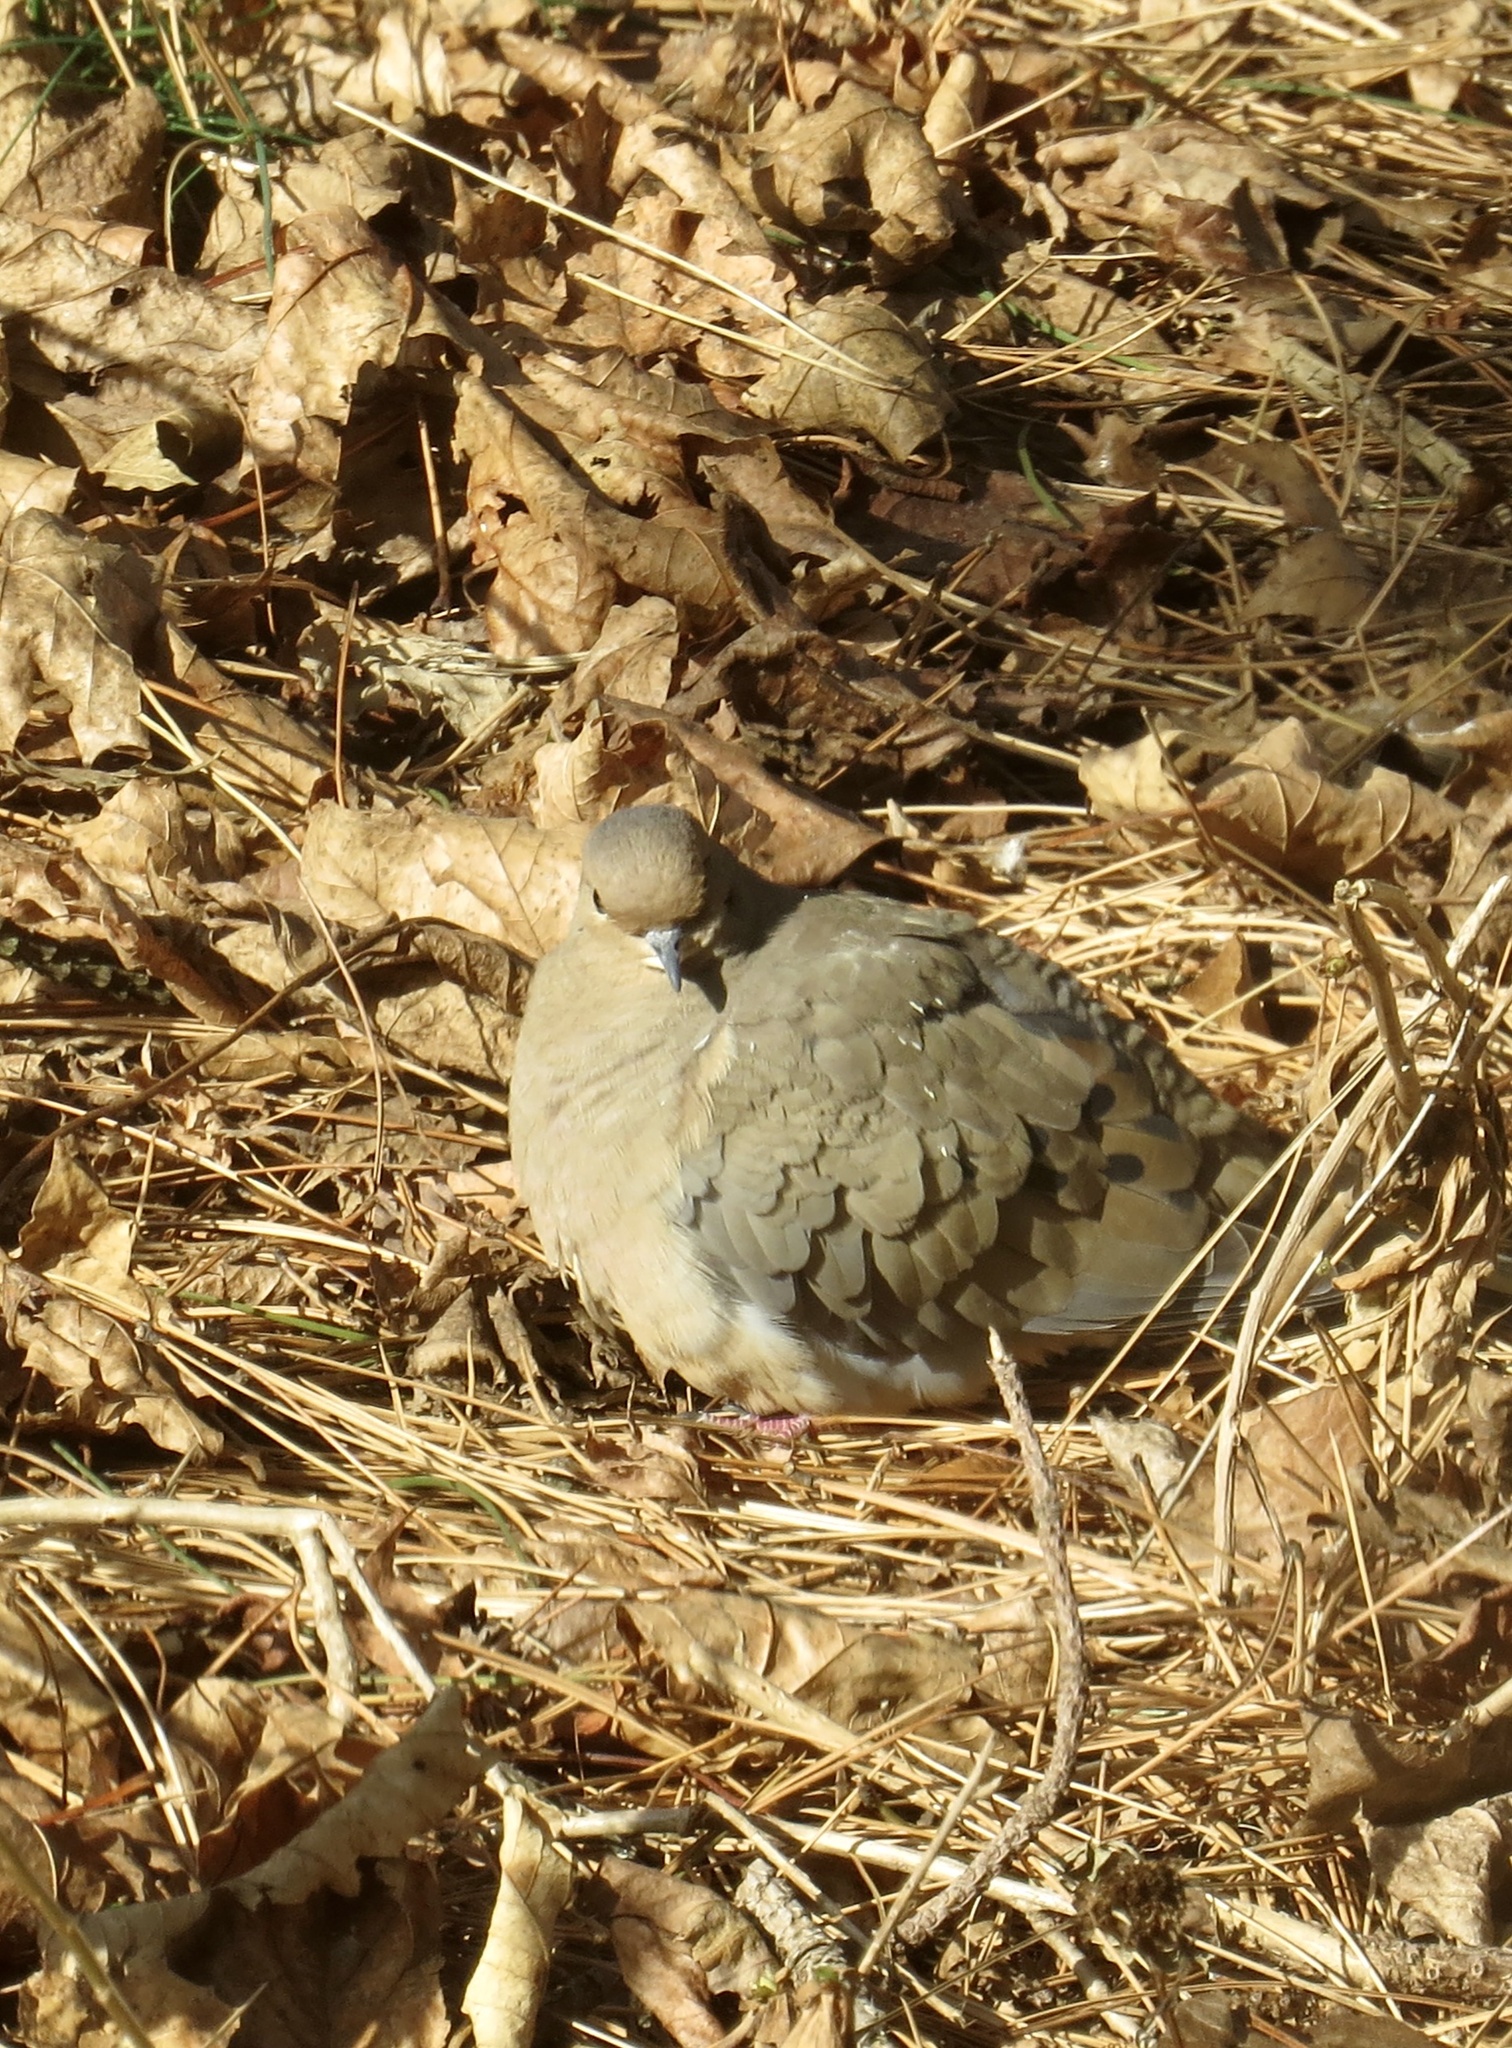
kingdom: Animalia
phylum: Chordata
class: Aves
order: Columbiformes
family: Columbidae
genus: Zenaida
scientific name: Zenaida macroura
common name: Mourning dove
